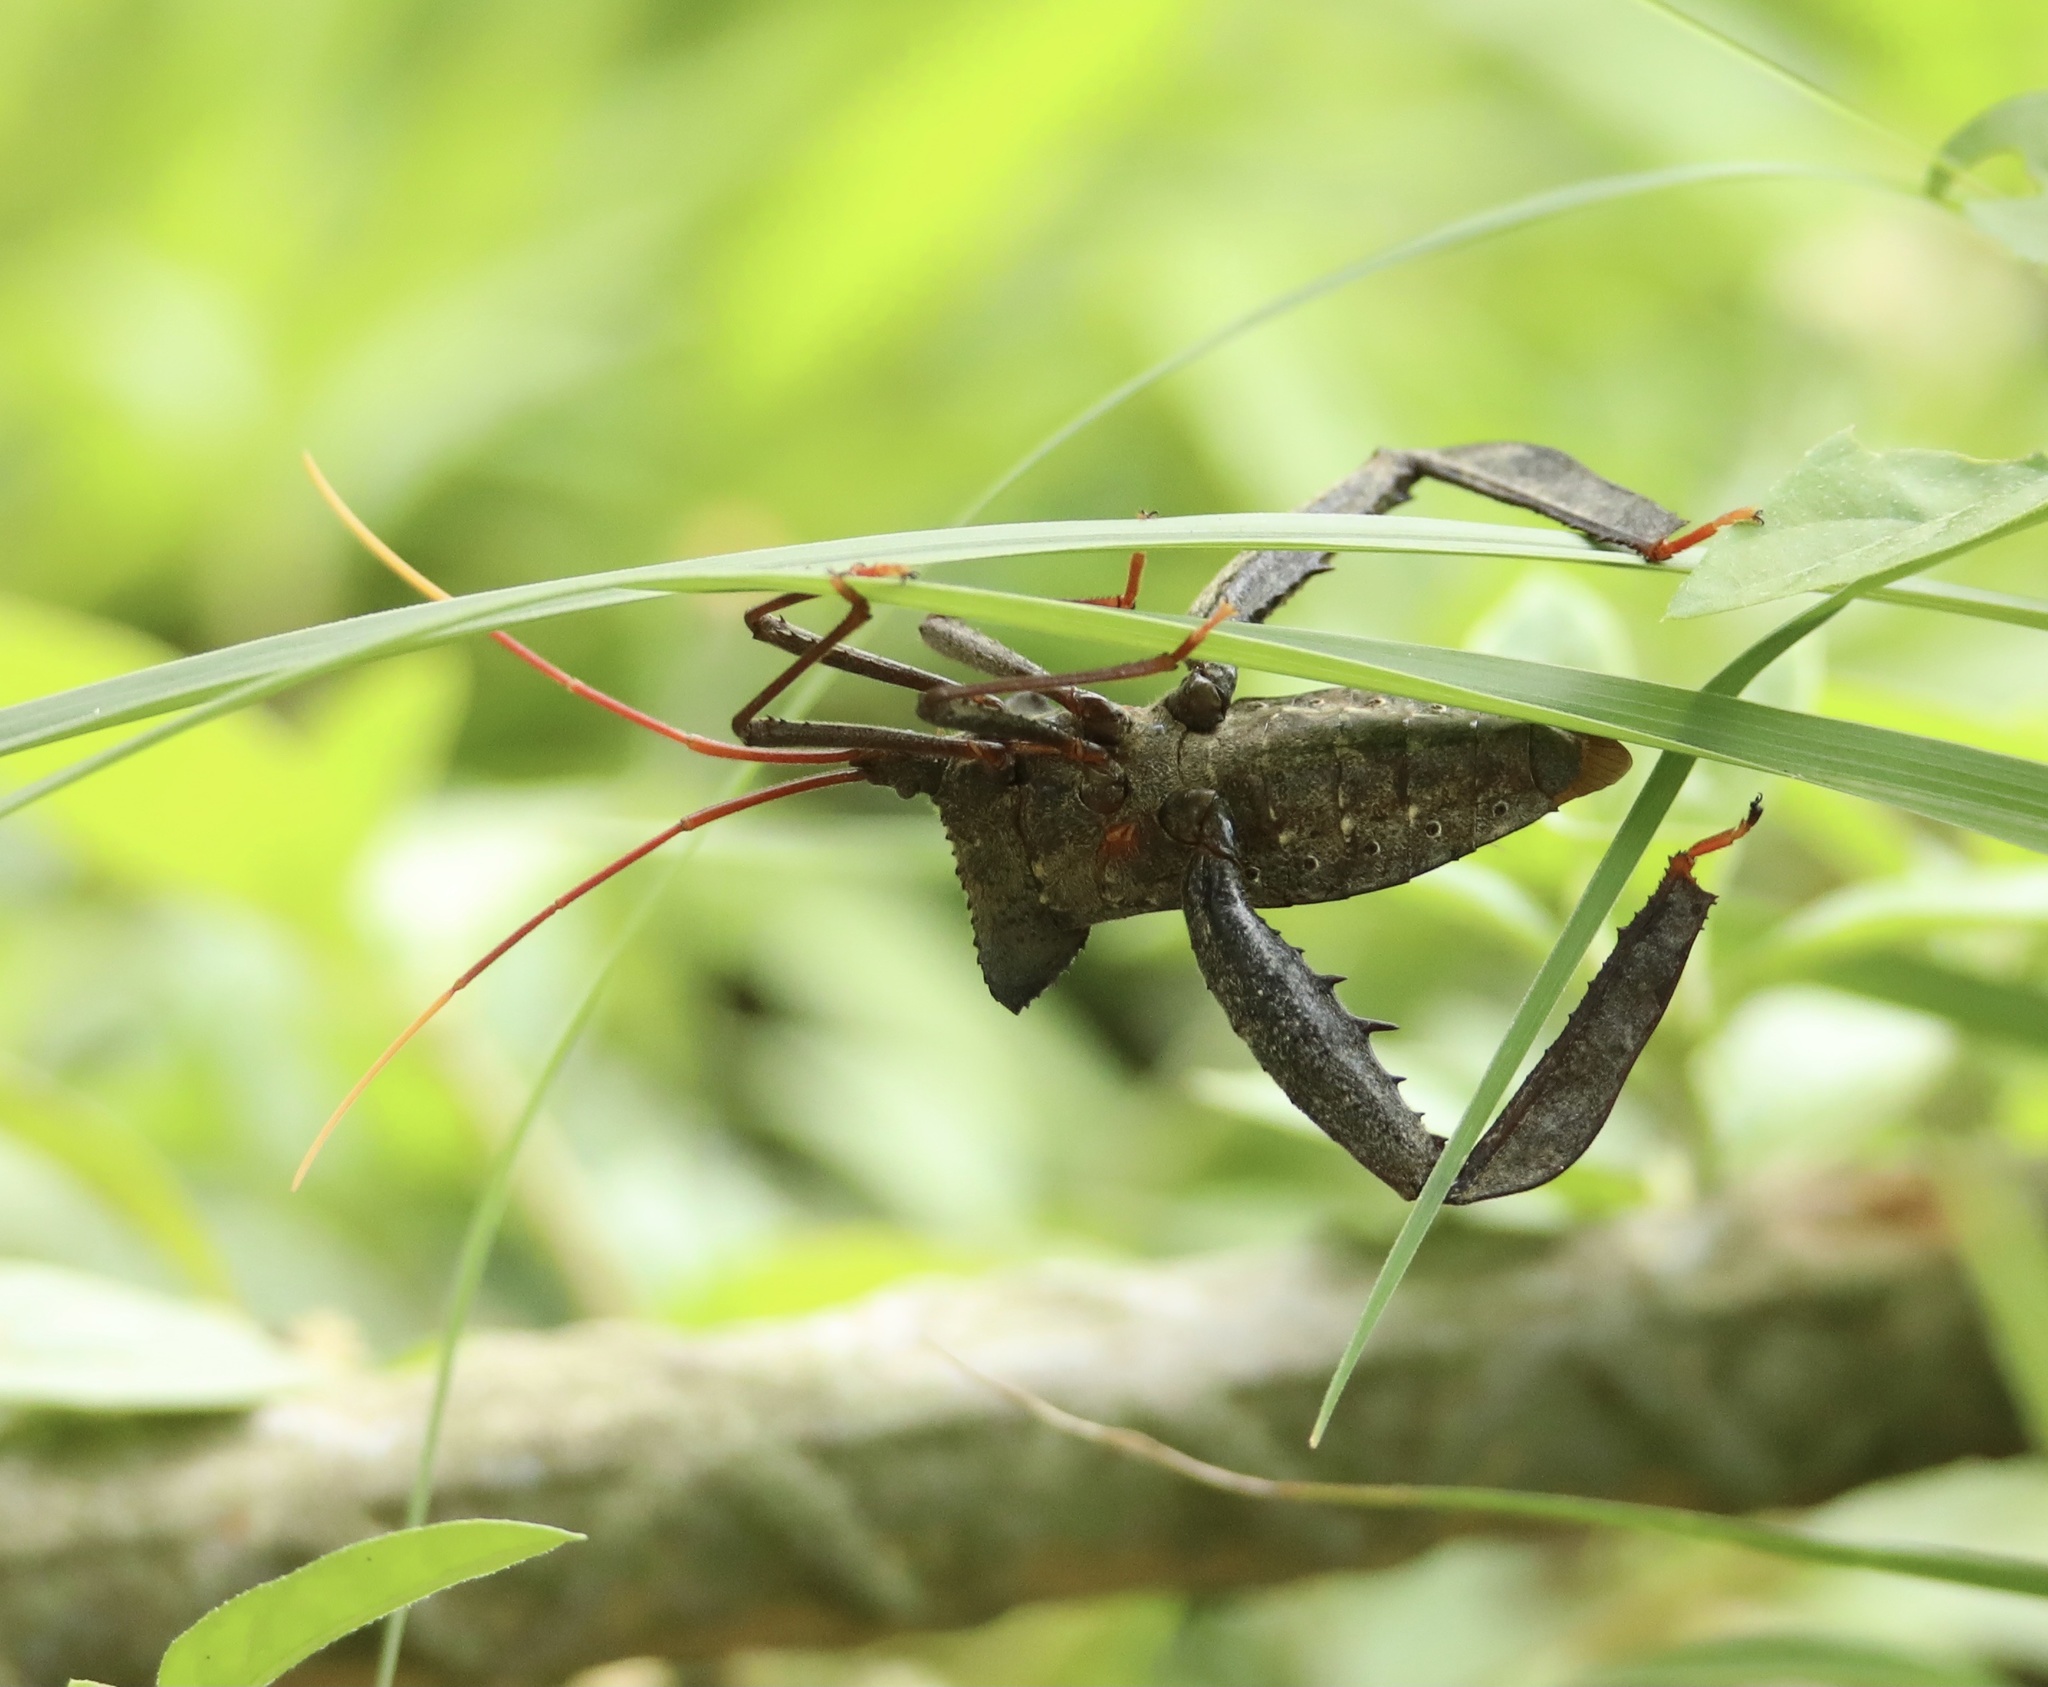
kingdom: Animalia
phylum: Arthropoda
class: Insecta
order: Hemiptera
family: Coreidae
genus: Acanthocephala
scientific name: Acanthocephala alata
